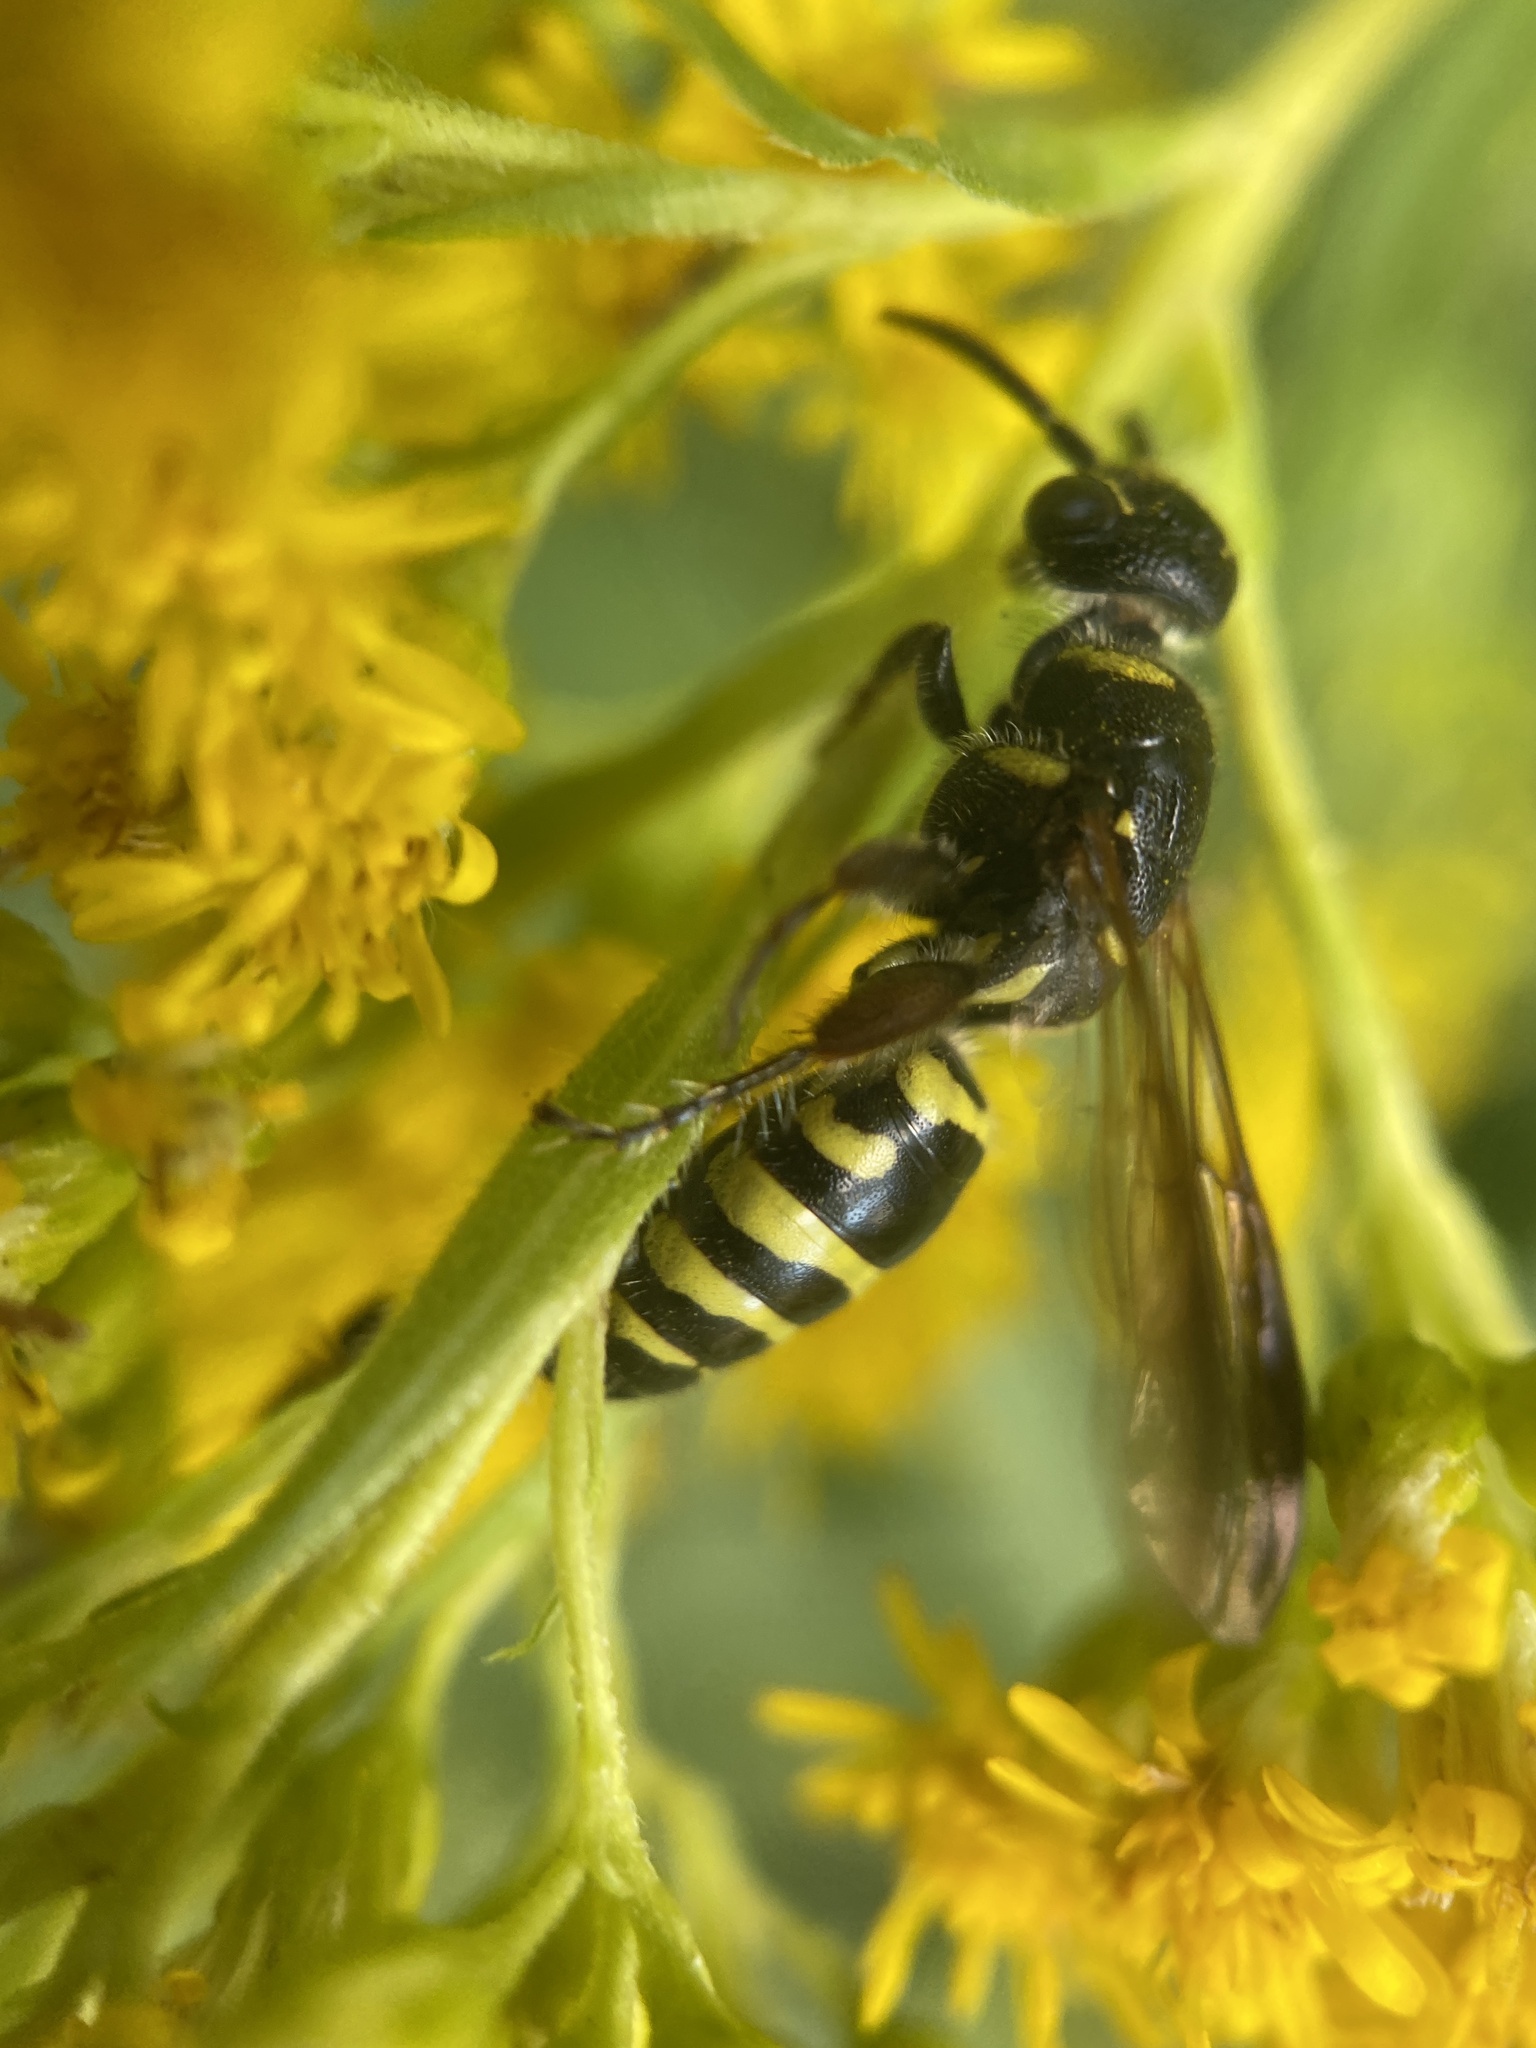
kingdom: Animalia
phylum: Arthropoda
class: Insecta
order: Hymenoptera
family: Tiphiidae
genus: Myzinum
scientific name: Myzinum maculatum
